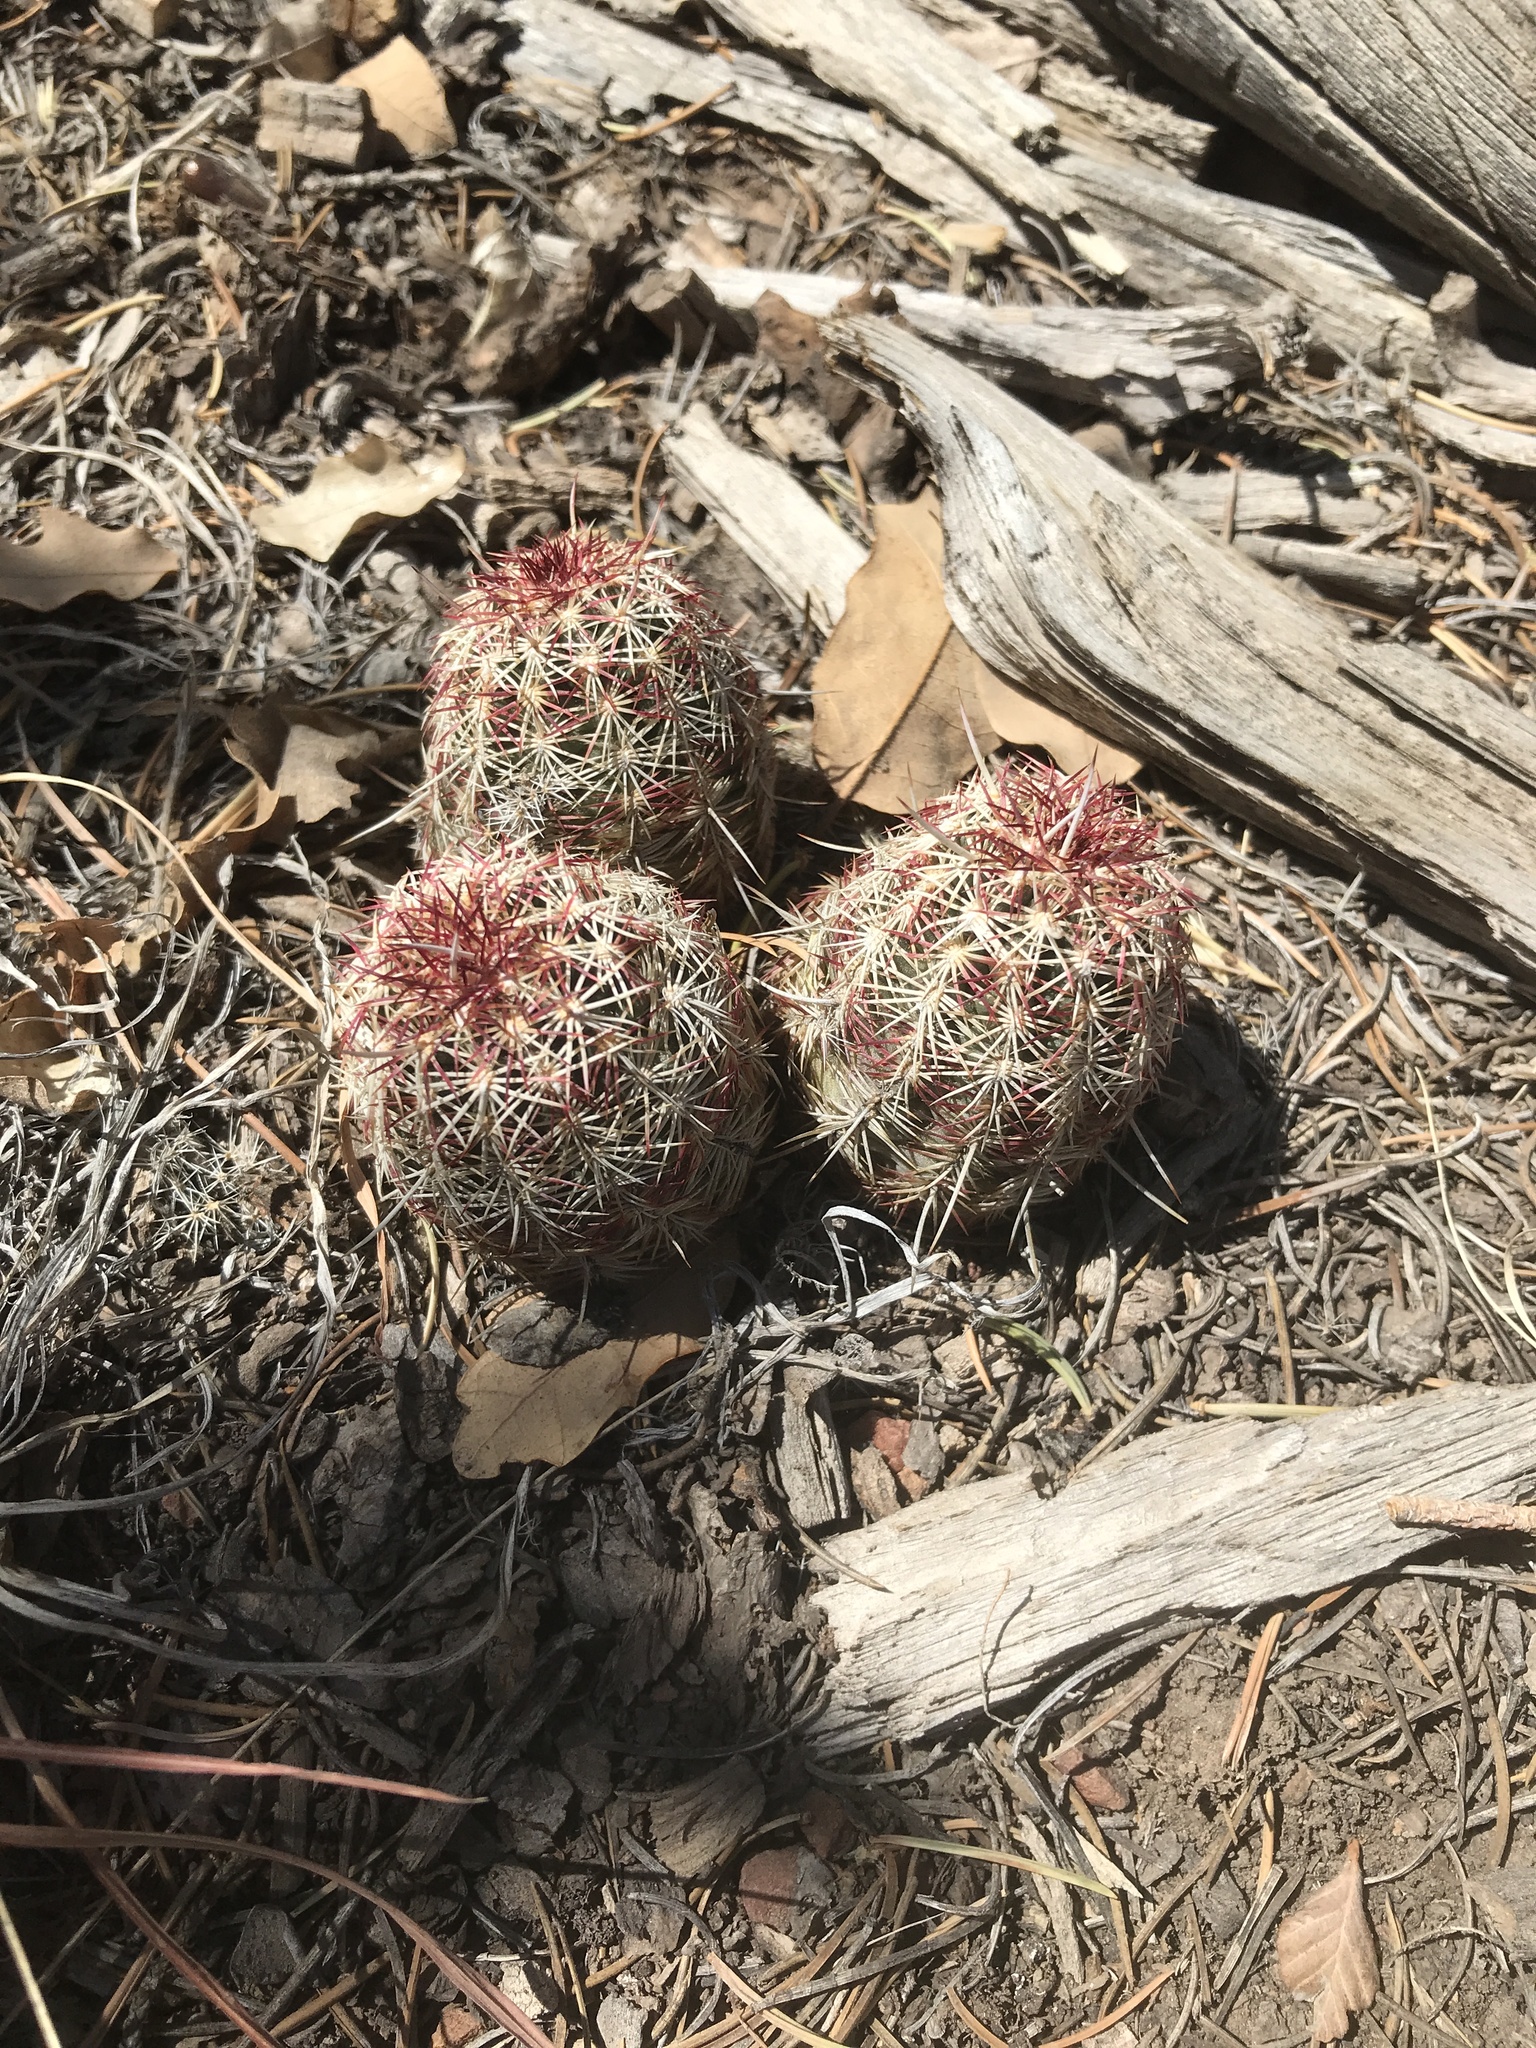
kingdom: Plantae
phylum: Tracheophyta
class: Magnoliopsida
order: Caryophyllales
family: Cactaceae
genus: Echinocereus
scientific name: Echinocereus viridiflorus
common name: Nylon hedgehog cactus
